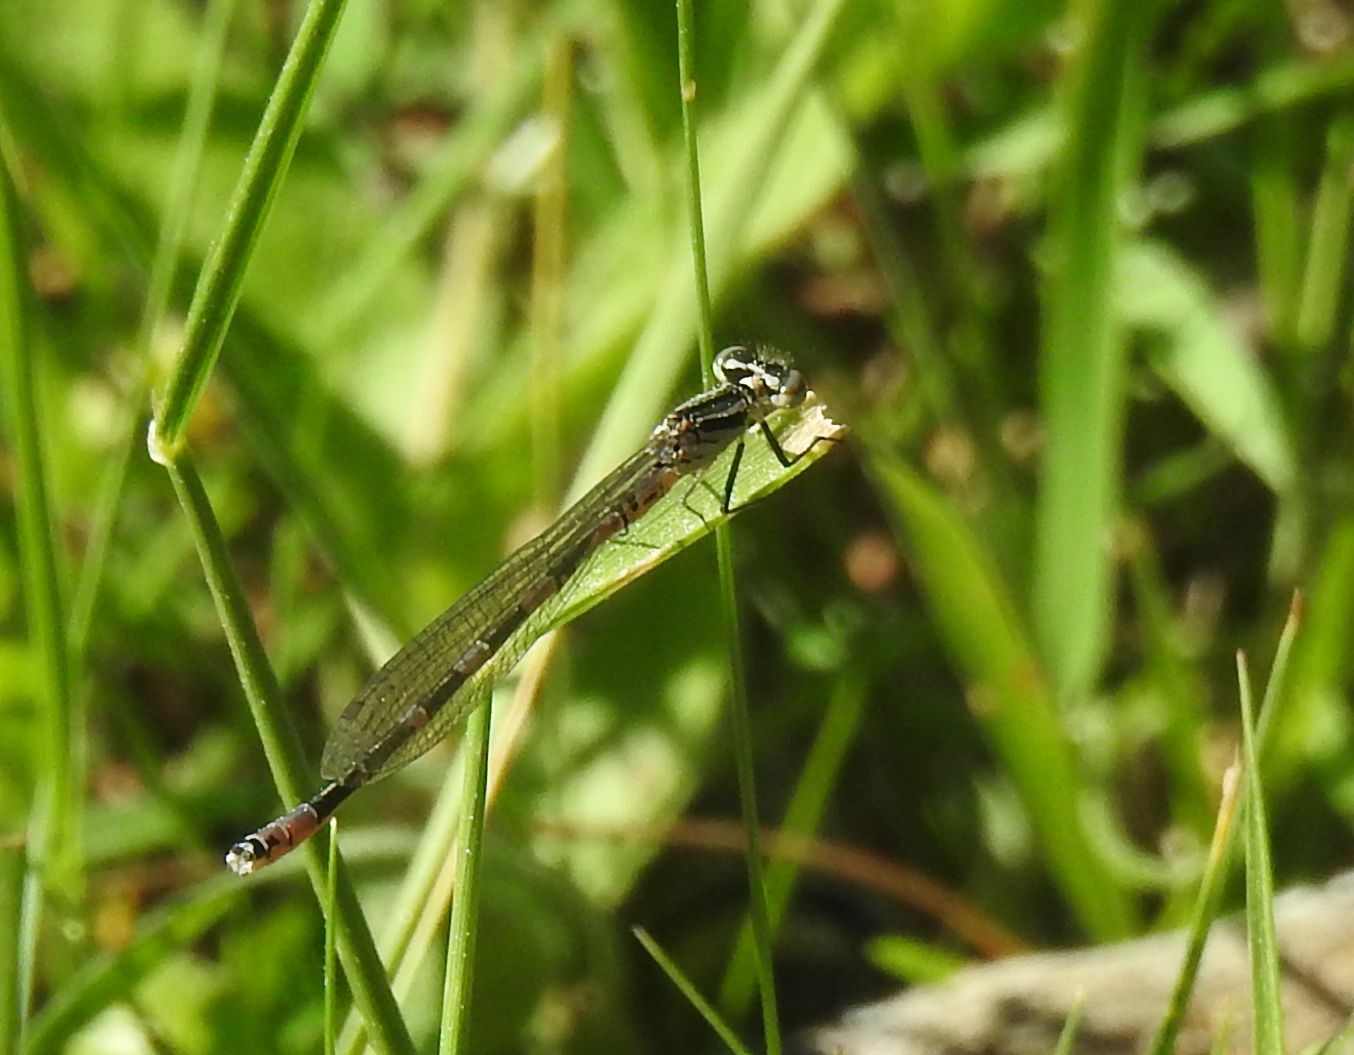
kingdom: Animalia
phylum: Arthropoda
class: Insecta
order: Odonata
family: Coenagrionidae
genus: Coenagrion
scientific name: Coenagrion hastulatum
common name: Spearhead bluet
